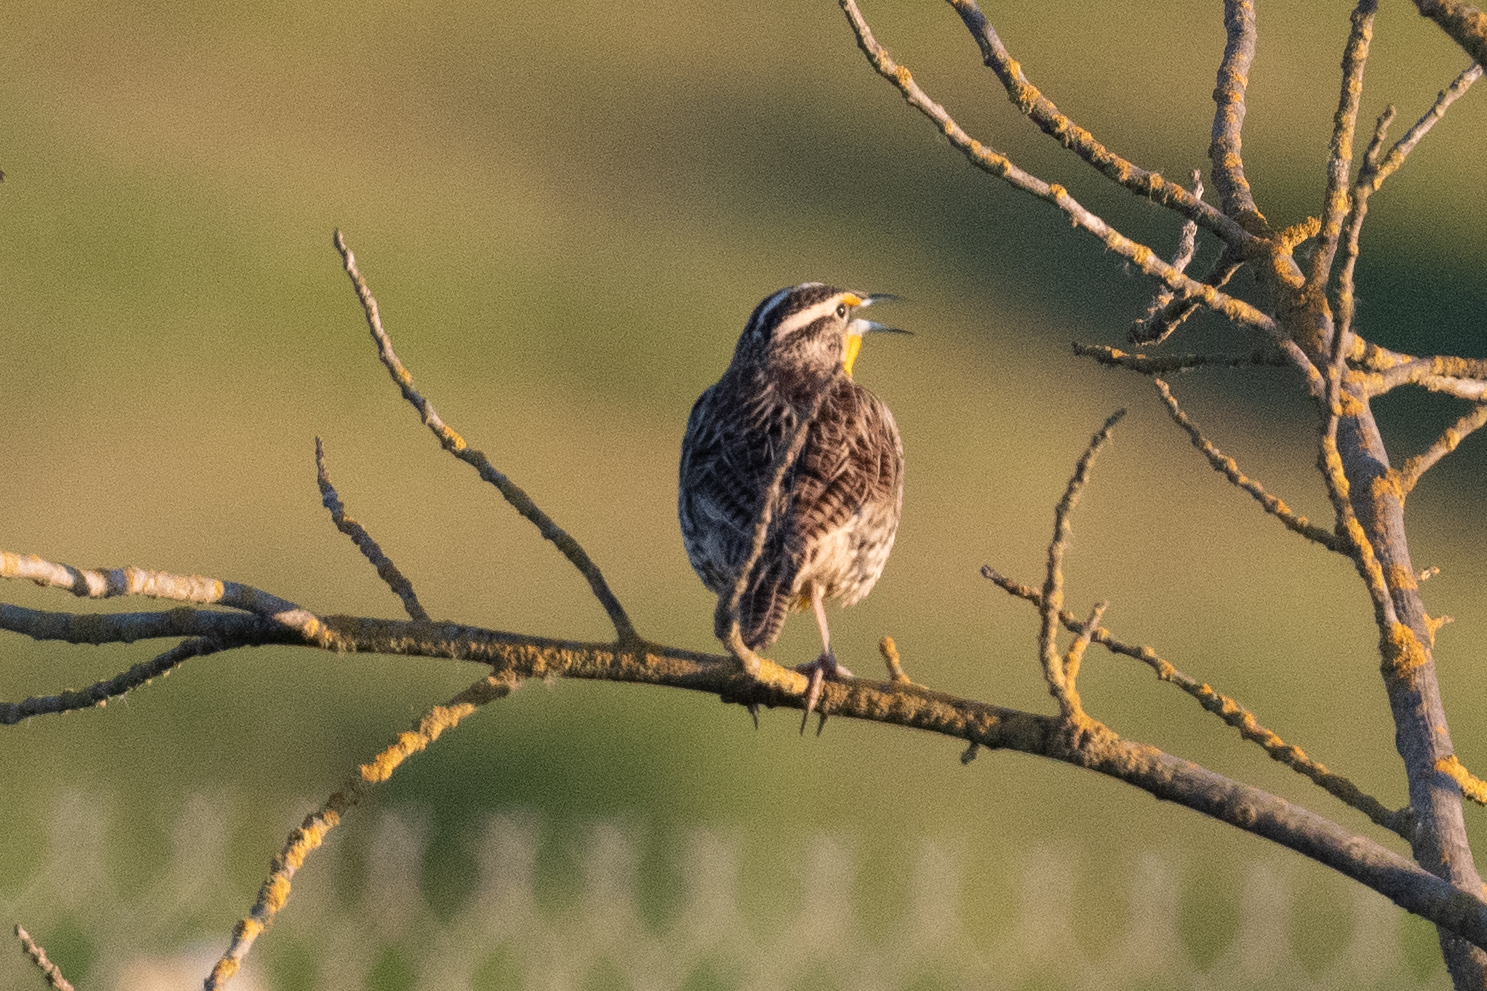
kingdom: Animalia
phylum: Chordata
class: Aves
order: Passeriformes
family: Icteridae
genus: Sturnella
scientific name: Sturnella neglecta
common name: Western meadowlark
